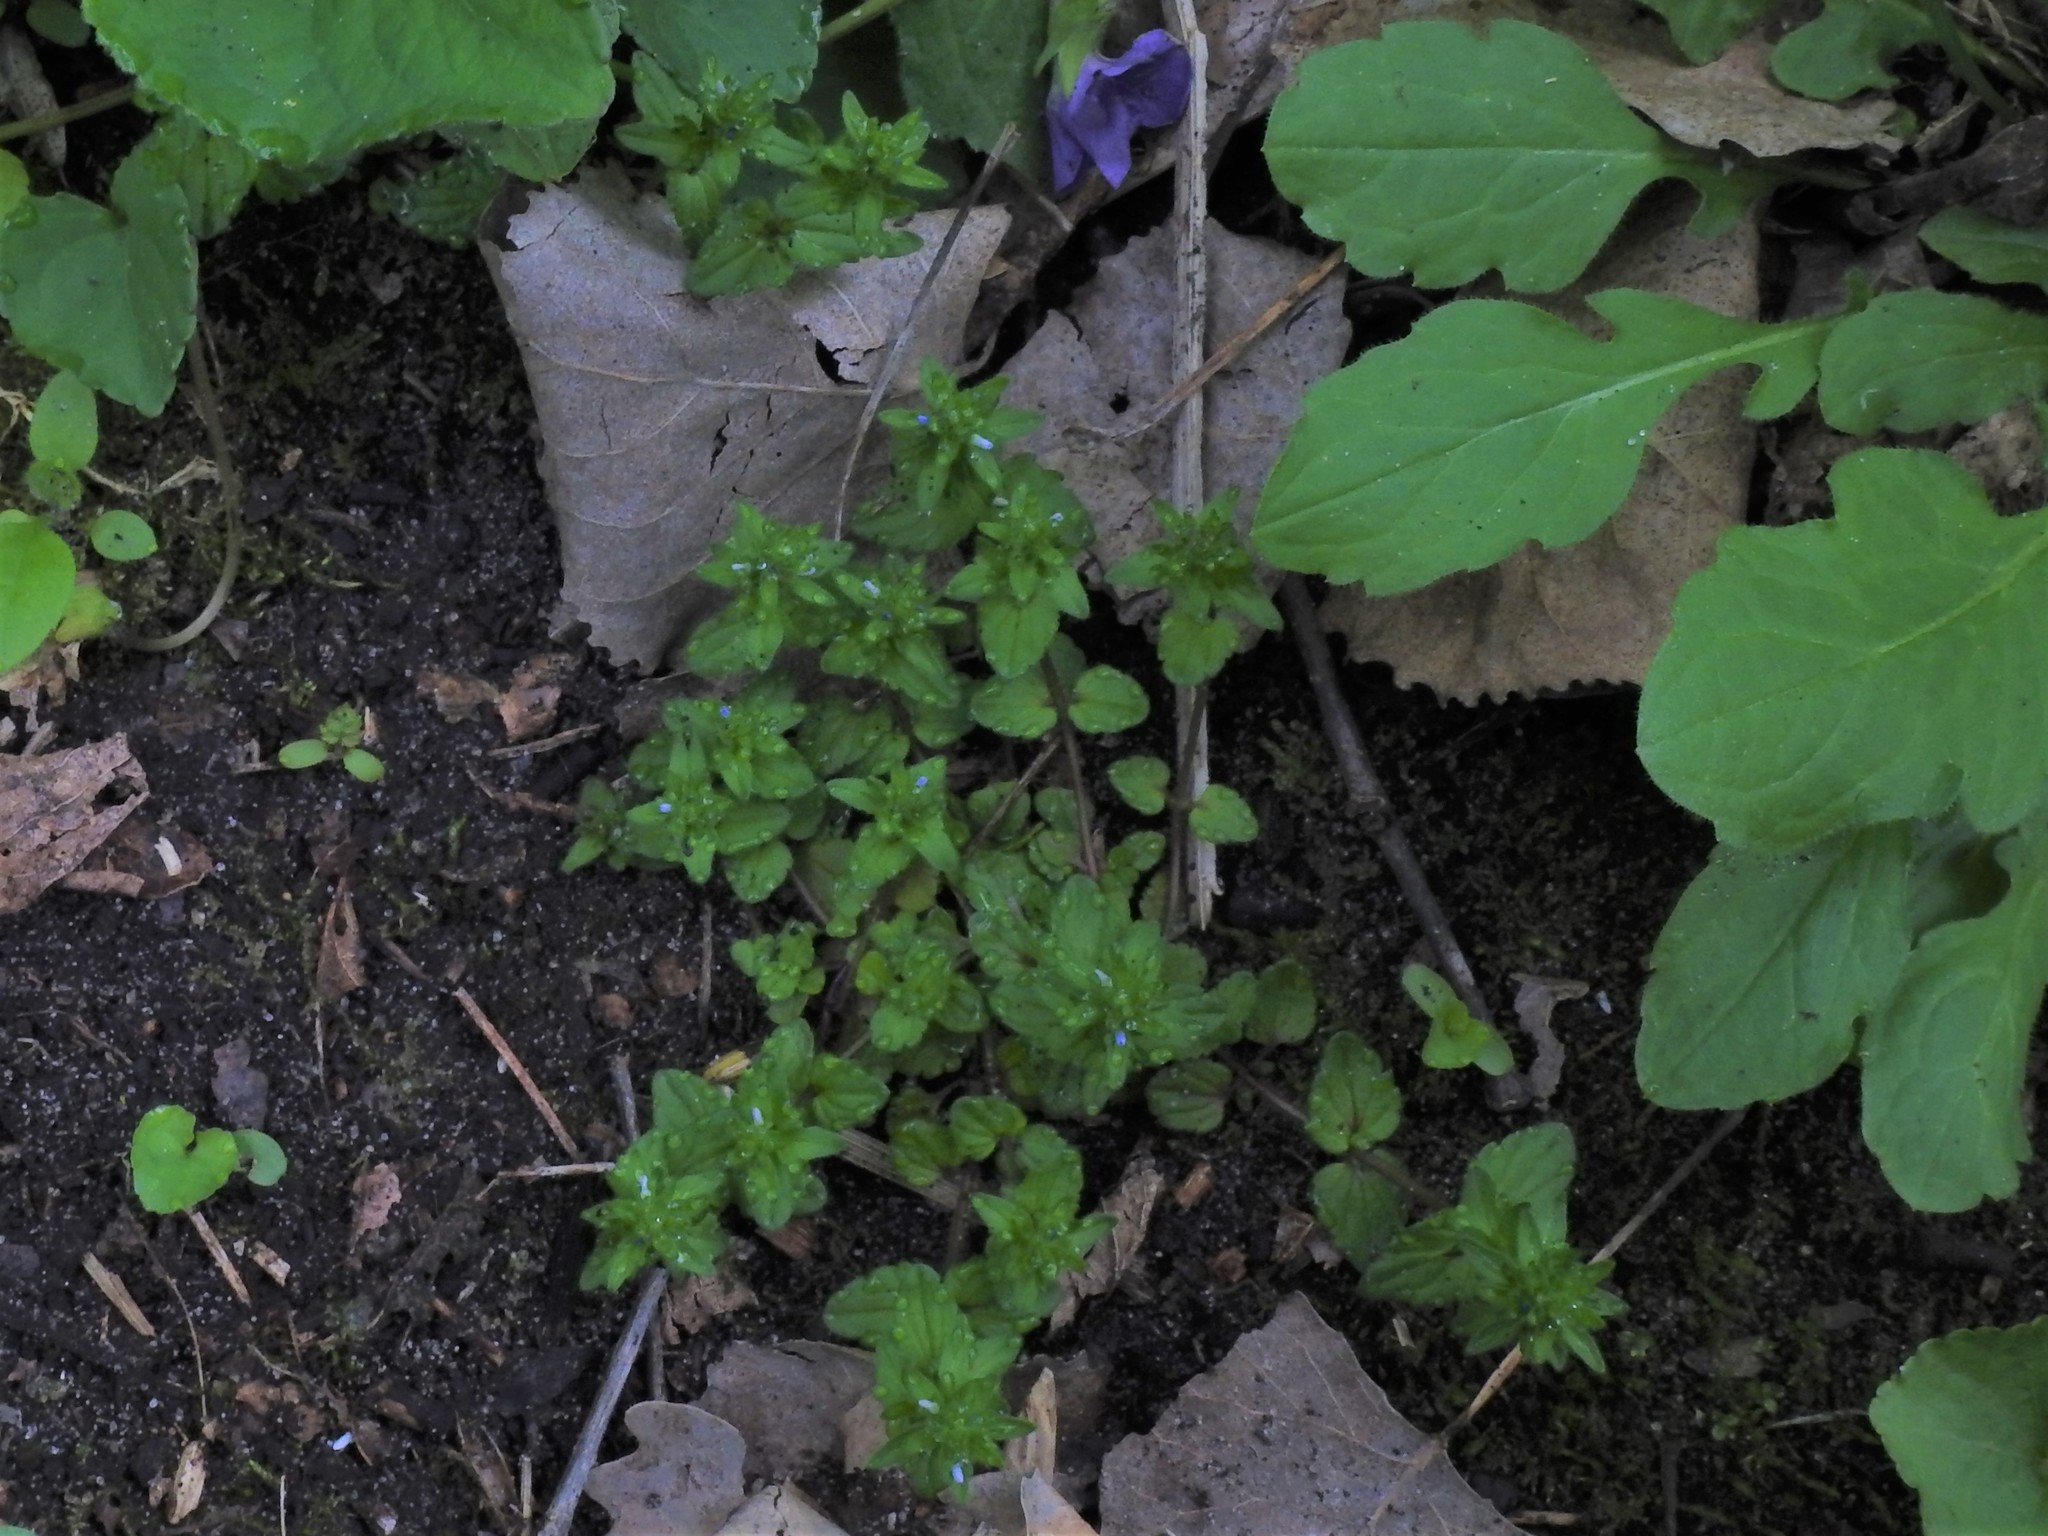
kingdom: Plantae
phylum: Tracheophyta
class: Magnoliopsida
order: Lamiales
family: Plantaginaceae
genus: Veronica
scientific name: Veronica arvensis
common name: Corn speedwell
